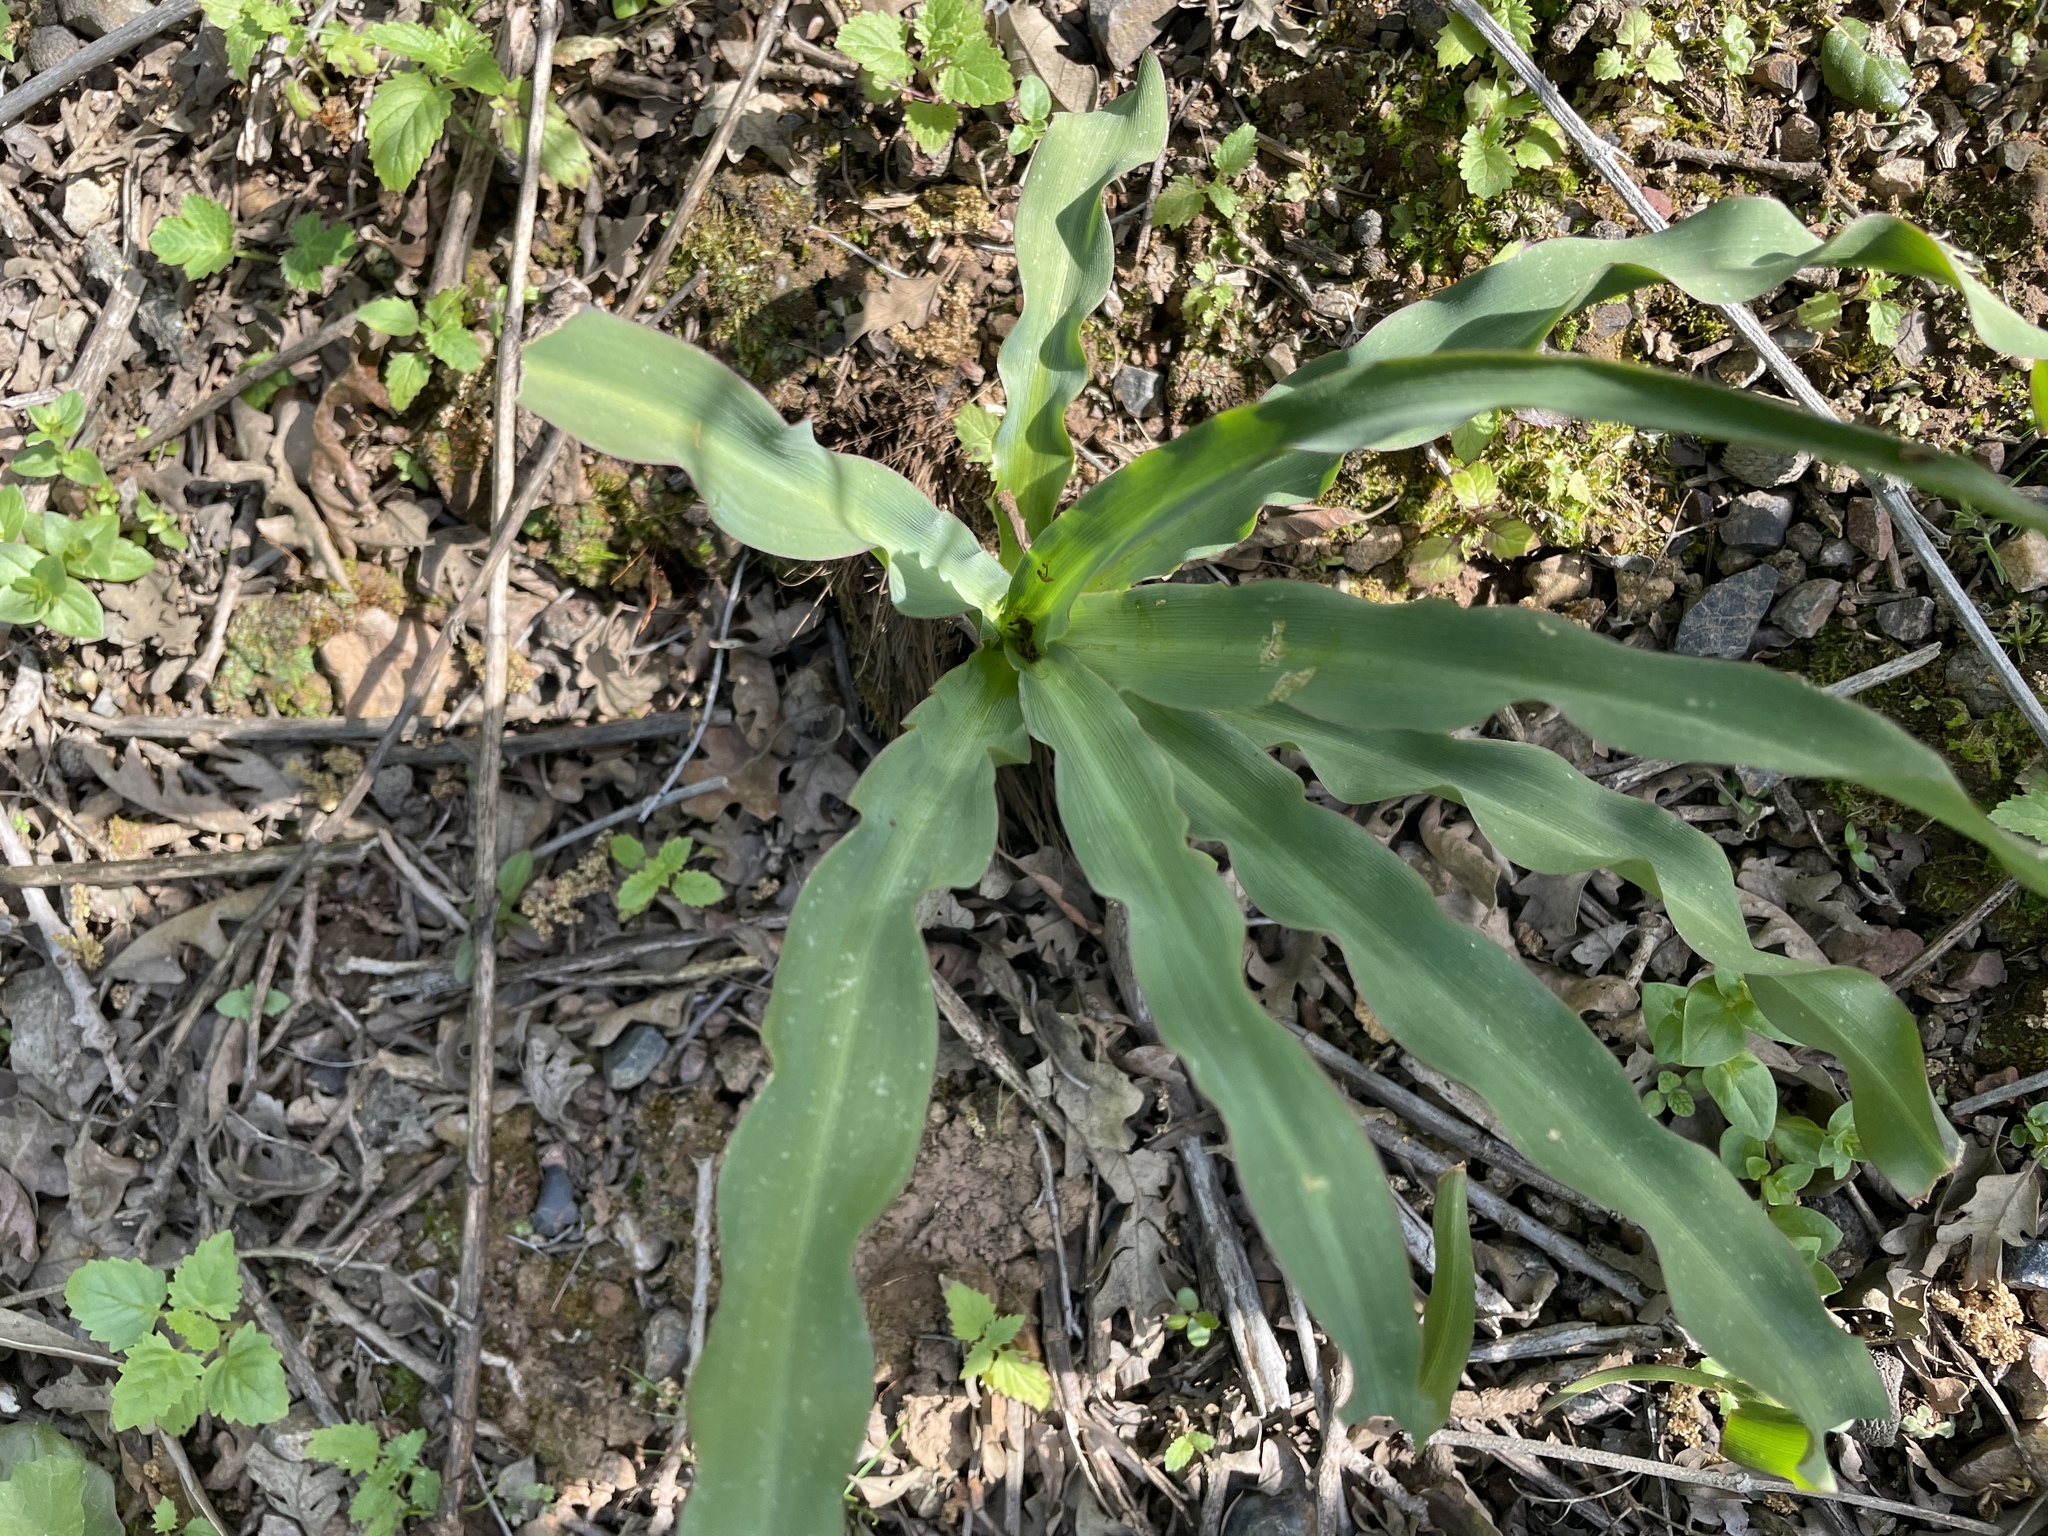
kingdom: Plantae
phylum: Tracheophyta
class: Liliopsida
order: Asparagales
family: Asparagaceae
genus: Chlorogalum
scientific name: Chlorogalum pomeridianum
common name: Amole
